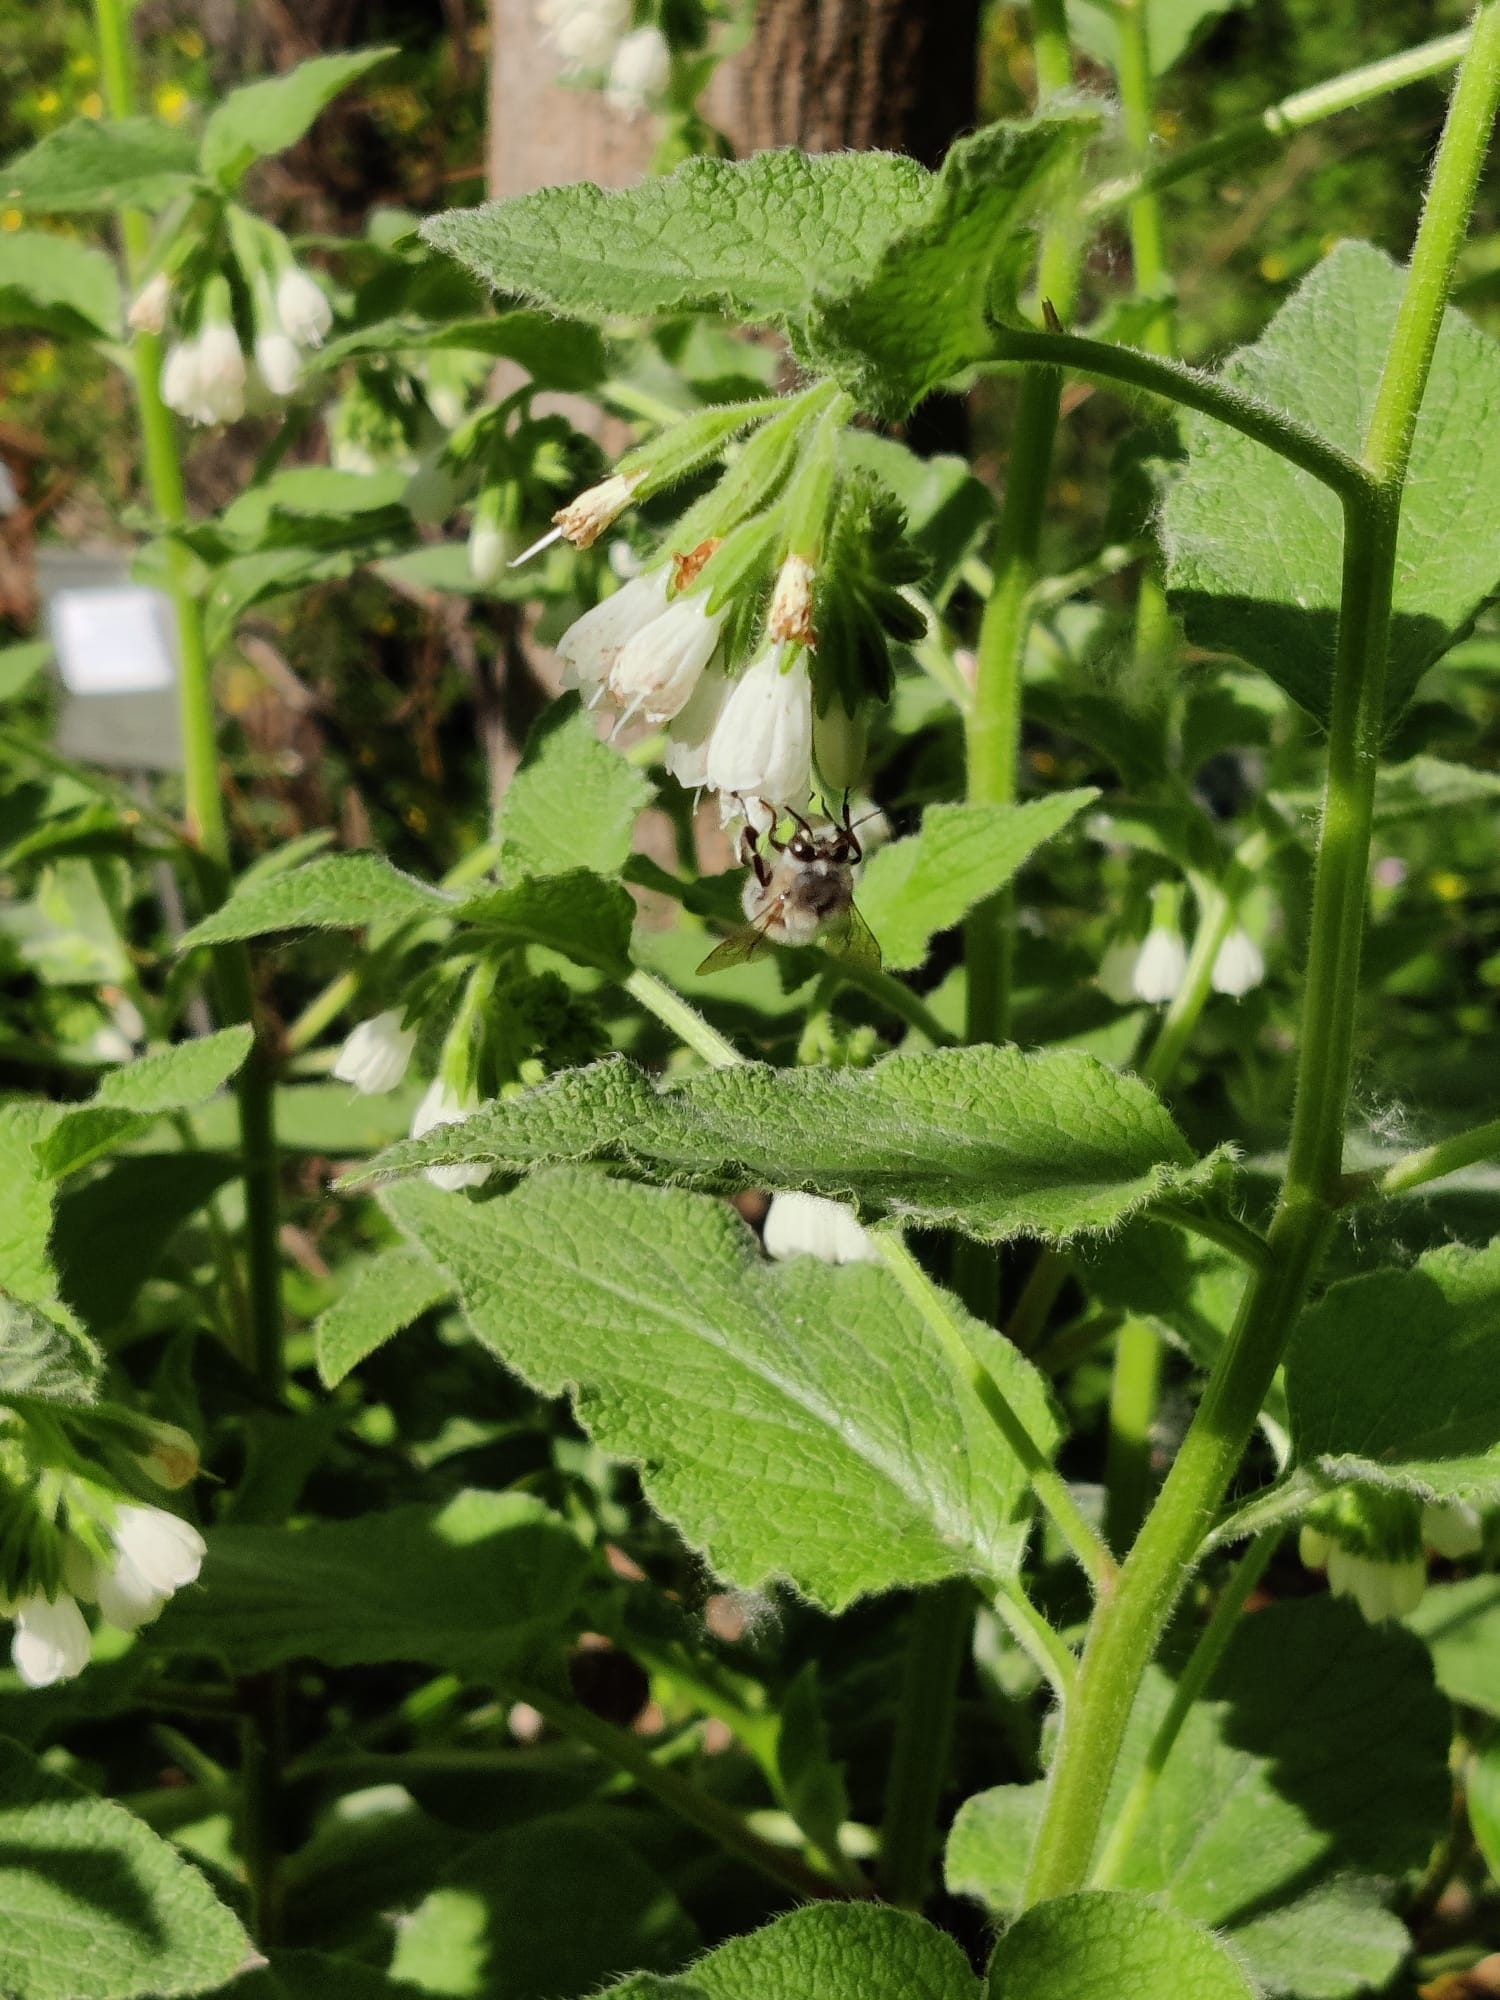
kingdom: Animalia
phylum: Arthropoda
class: Insecta
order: Hymenoptera
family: Apidae
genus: Anthophora
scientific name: Anthophora plumipes
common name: Hairy-footed flower bee
